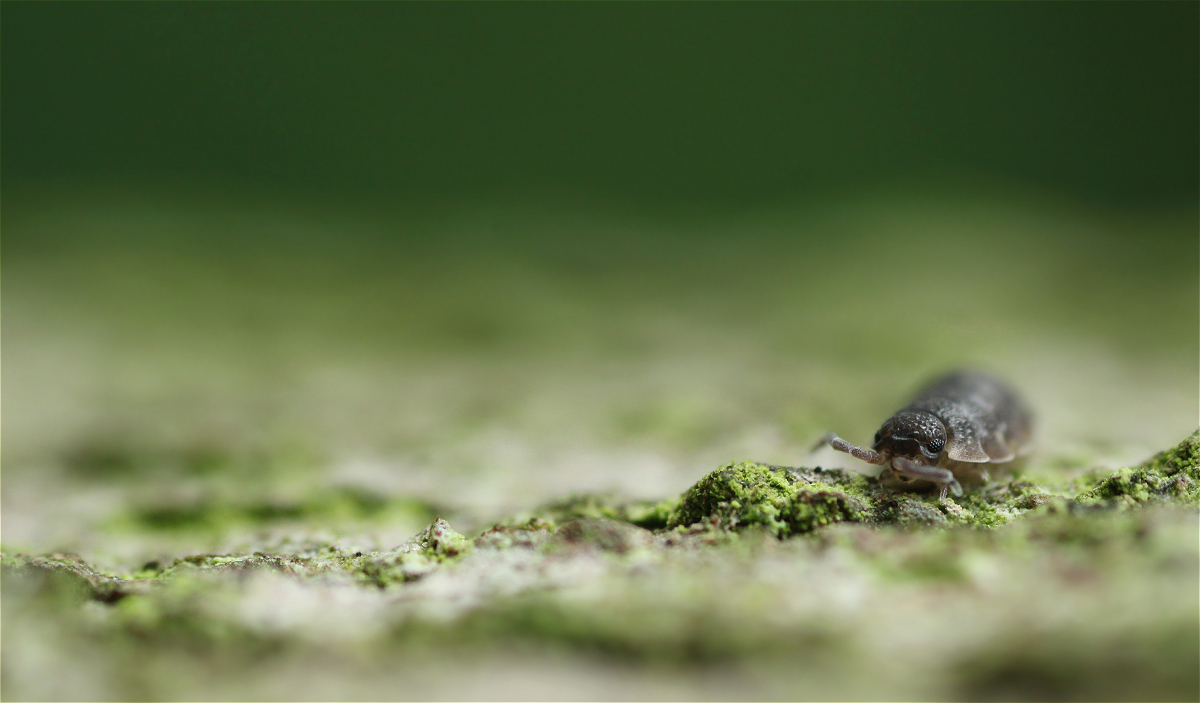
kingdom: Animalia
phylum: Arthropoda
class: Malacostraca
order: Isopoda
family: Porcellionidae
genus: Porcellio
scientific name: Porcellio scaber
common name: Common rough woodlouse
